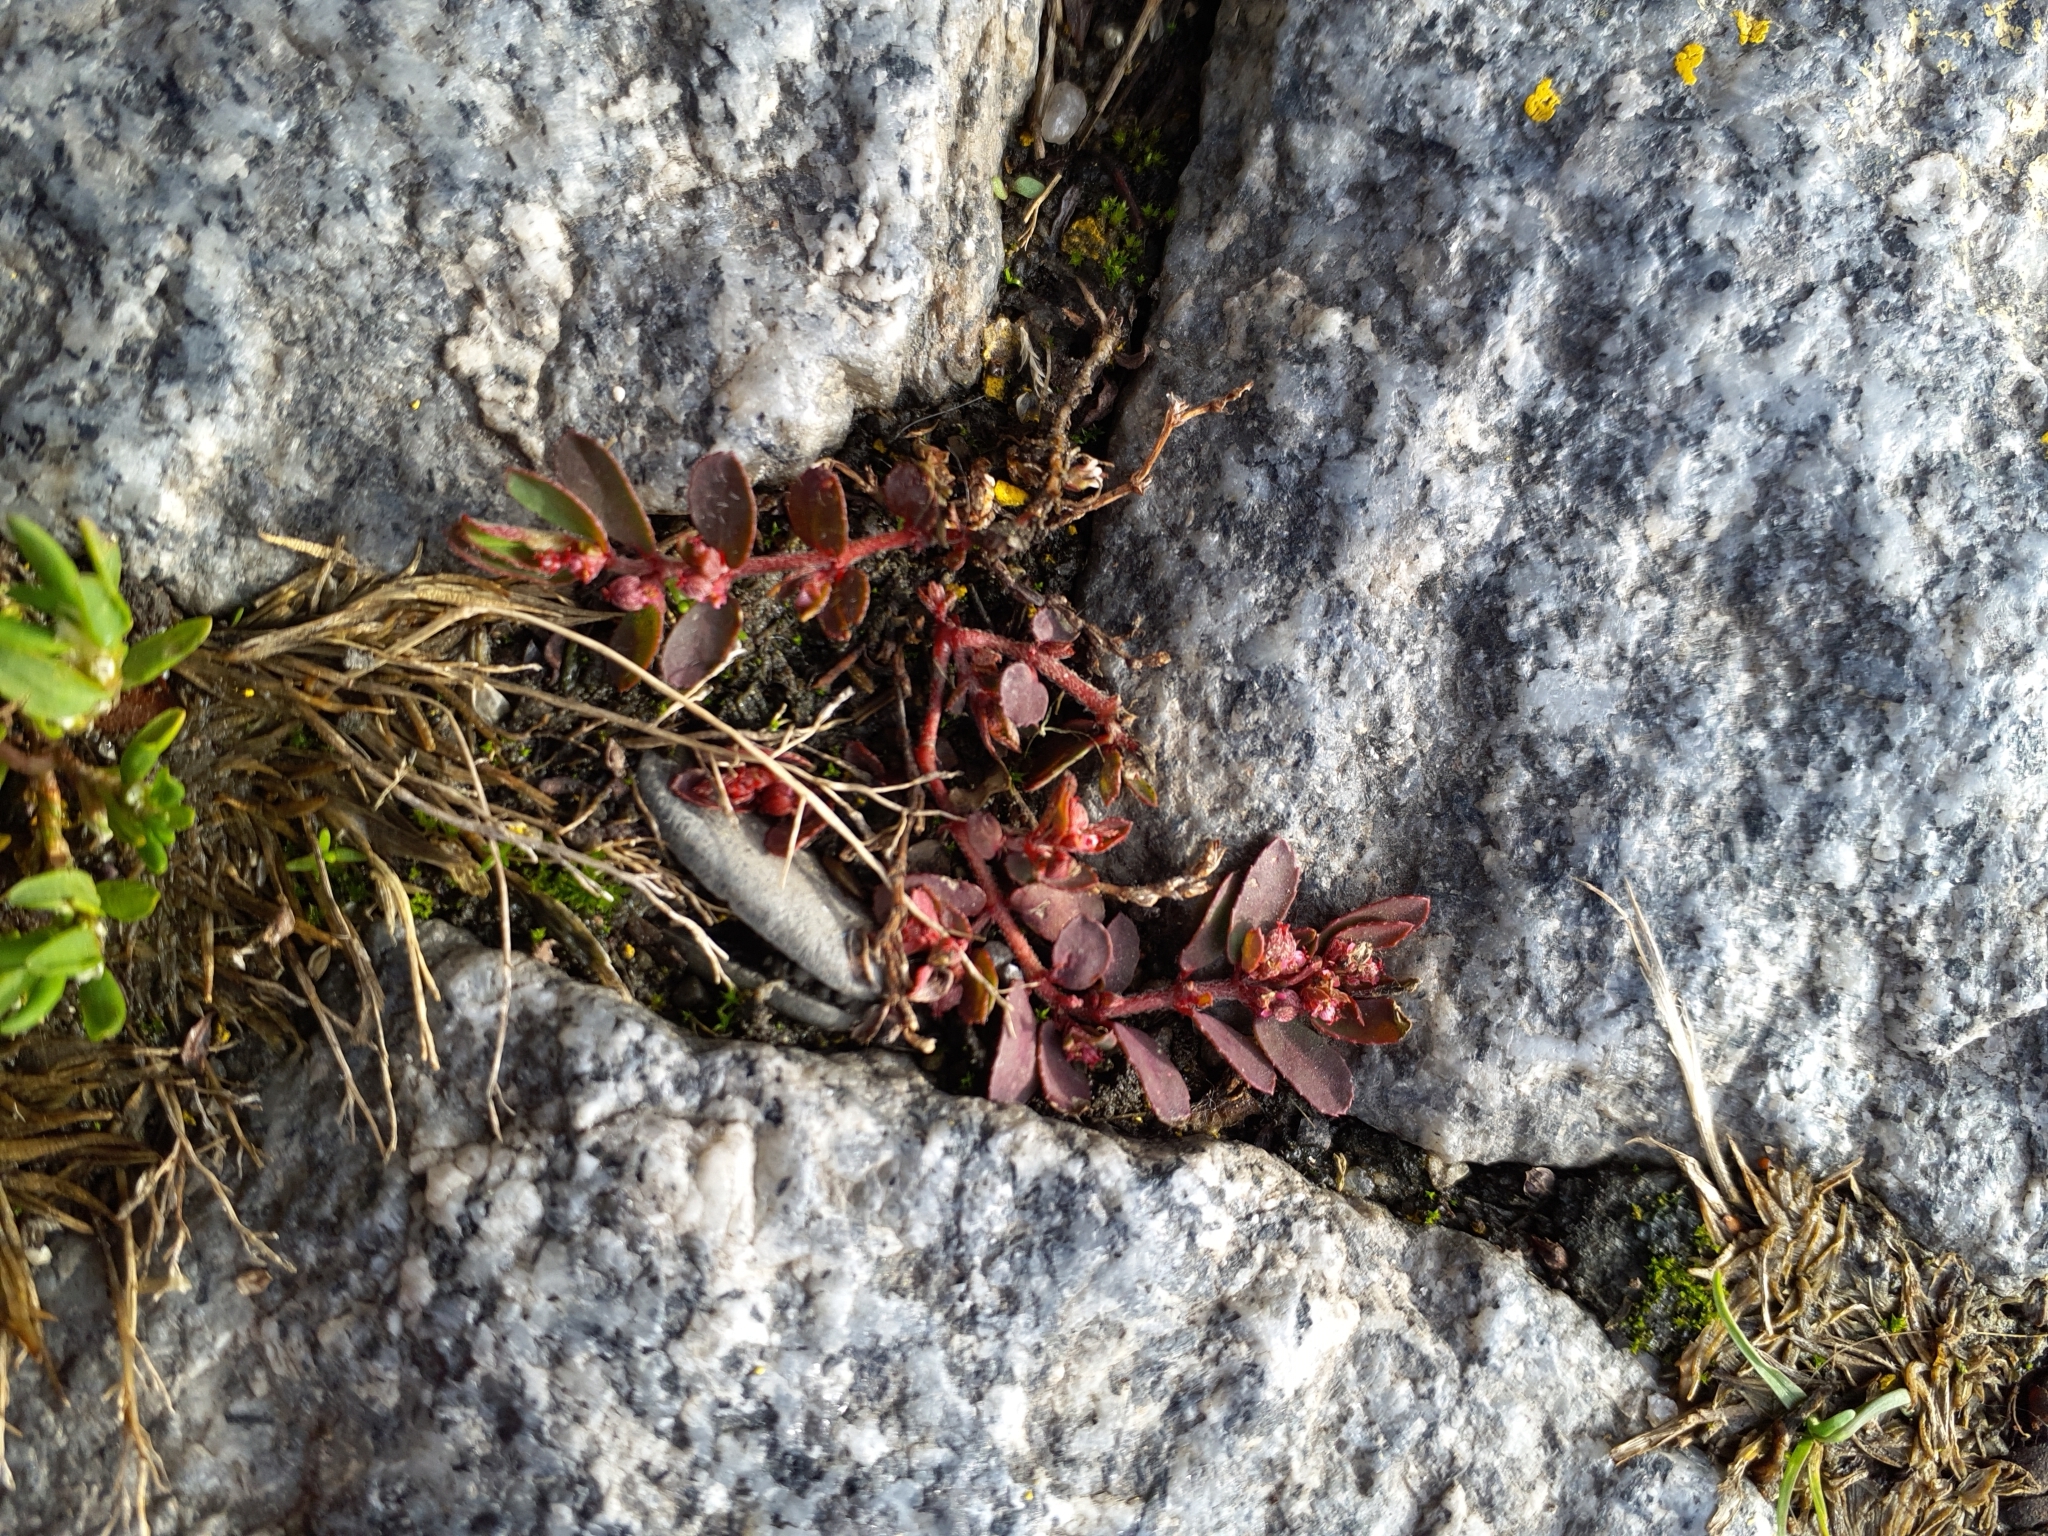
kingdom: Plantae
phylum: Tracheophyta
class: Magnoliopsida
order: Malpighiales
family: Euphorbiaceae
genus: Euphorbia
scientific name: Euphorbia maculata
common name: Spotted spurge
